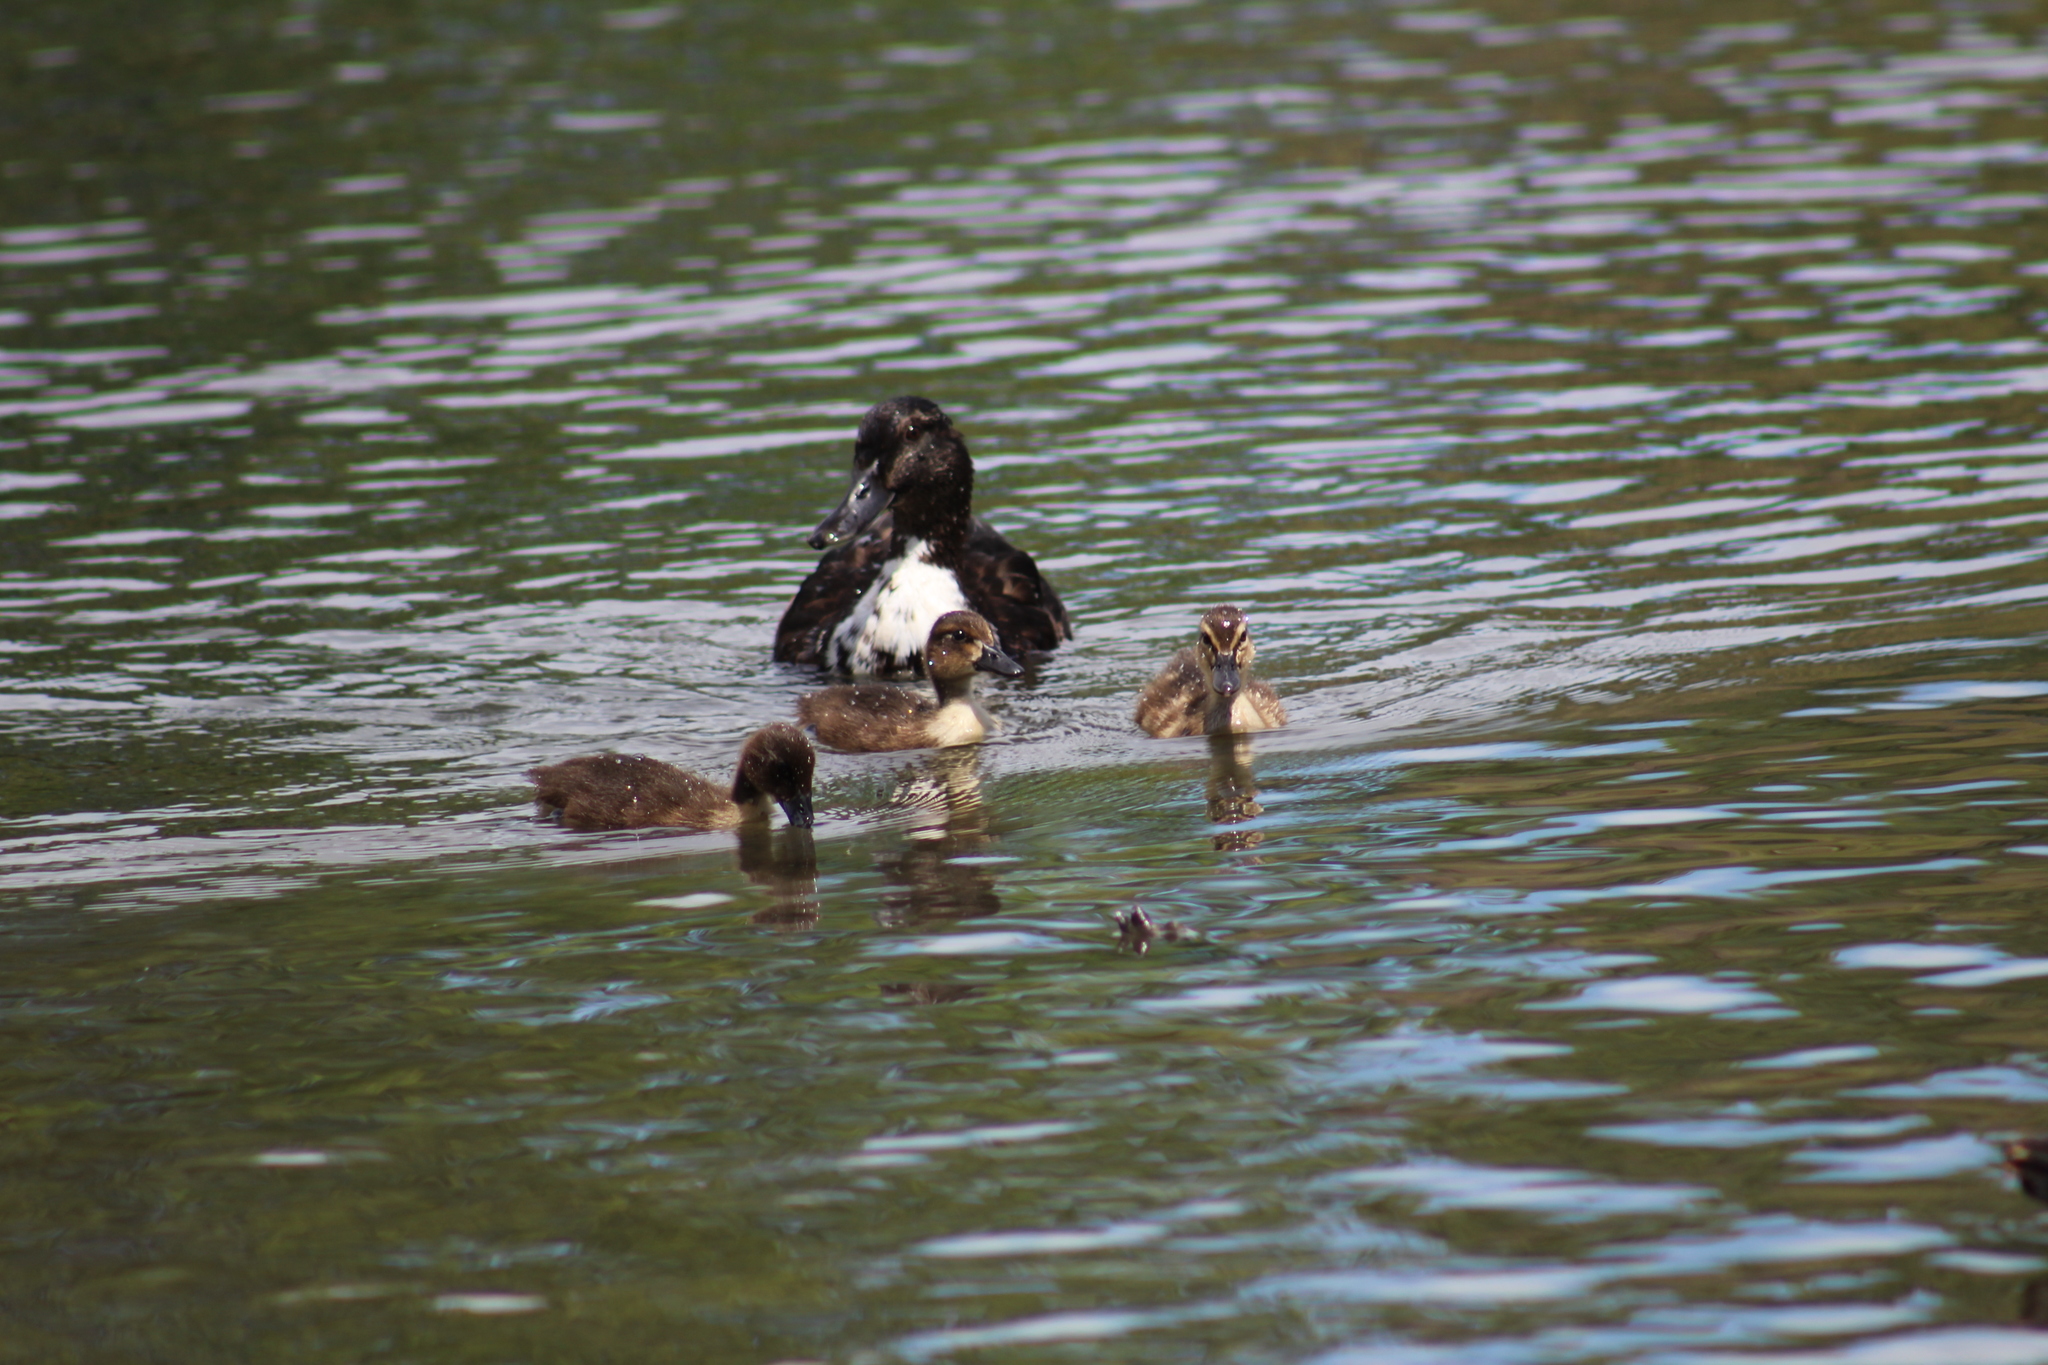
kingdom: Animalia
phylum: Chordata
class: Aves
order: Anseriformes
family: Anatidae
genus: Anas
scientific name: Anas platyrhynchos
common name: Mallard
